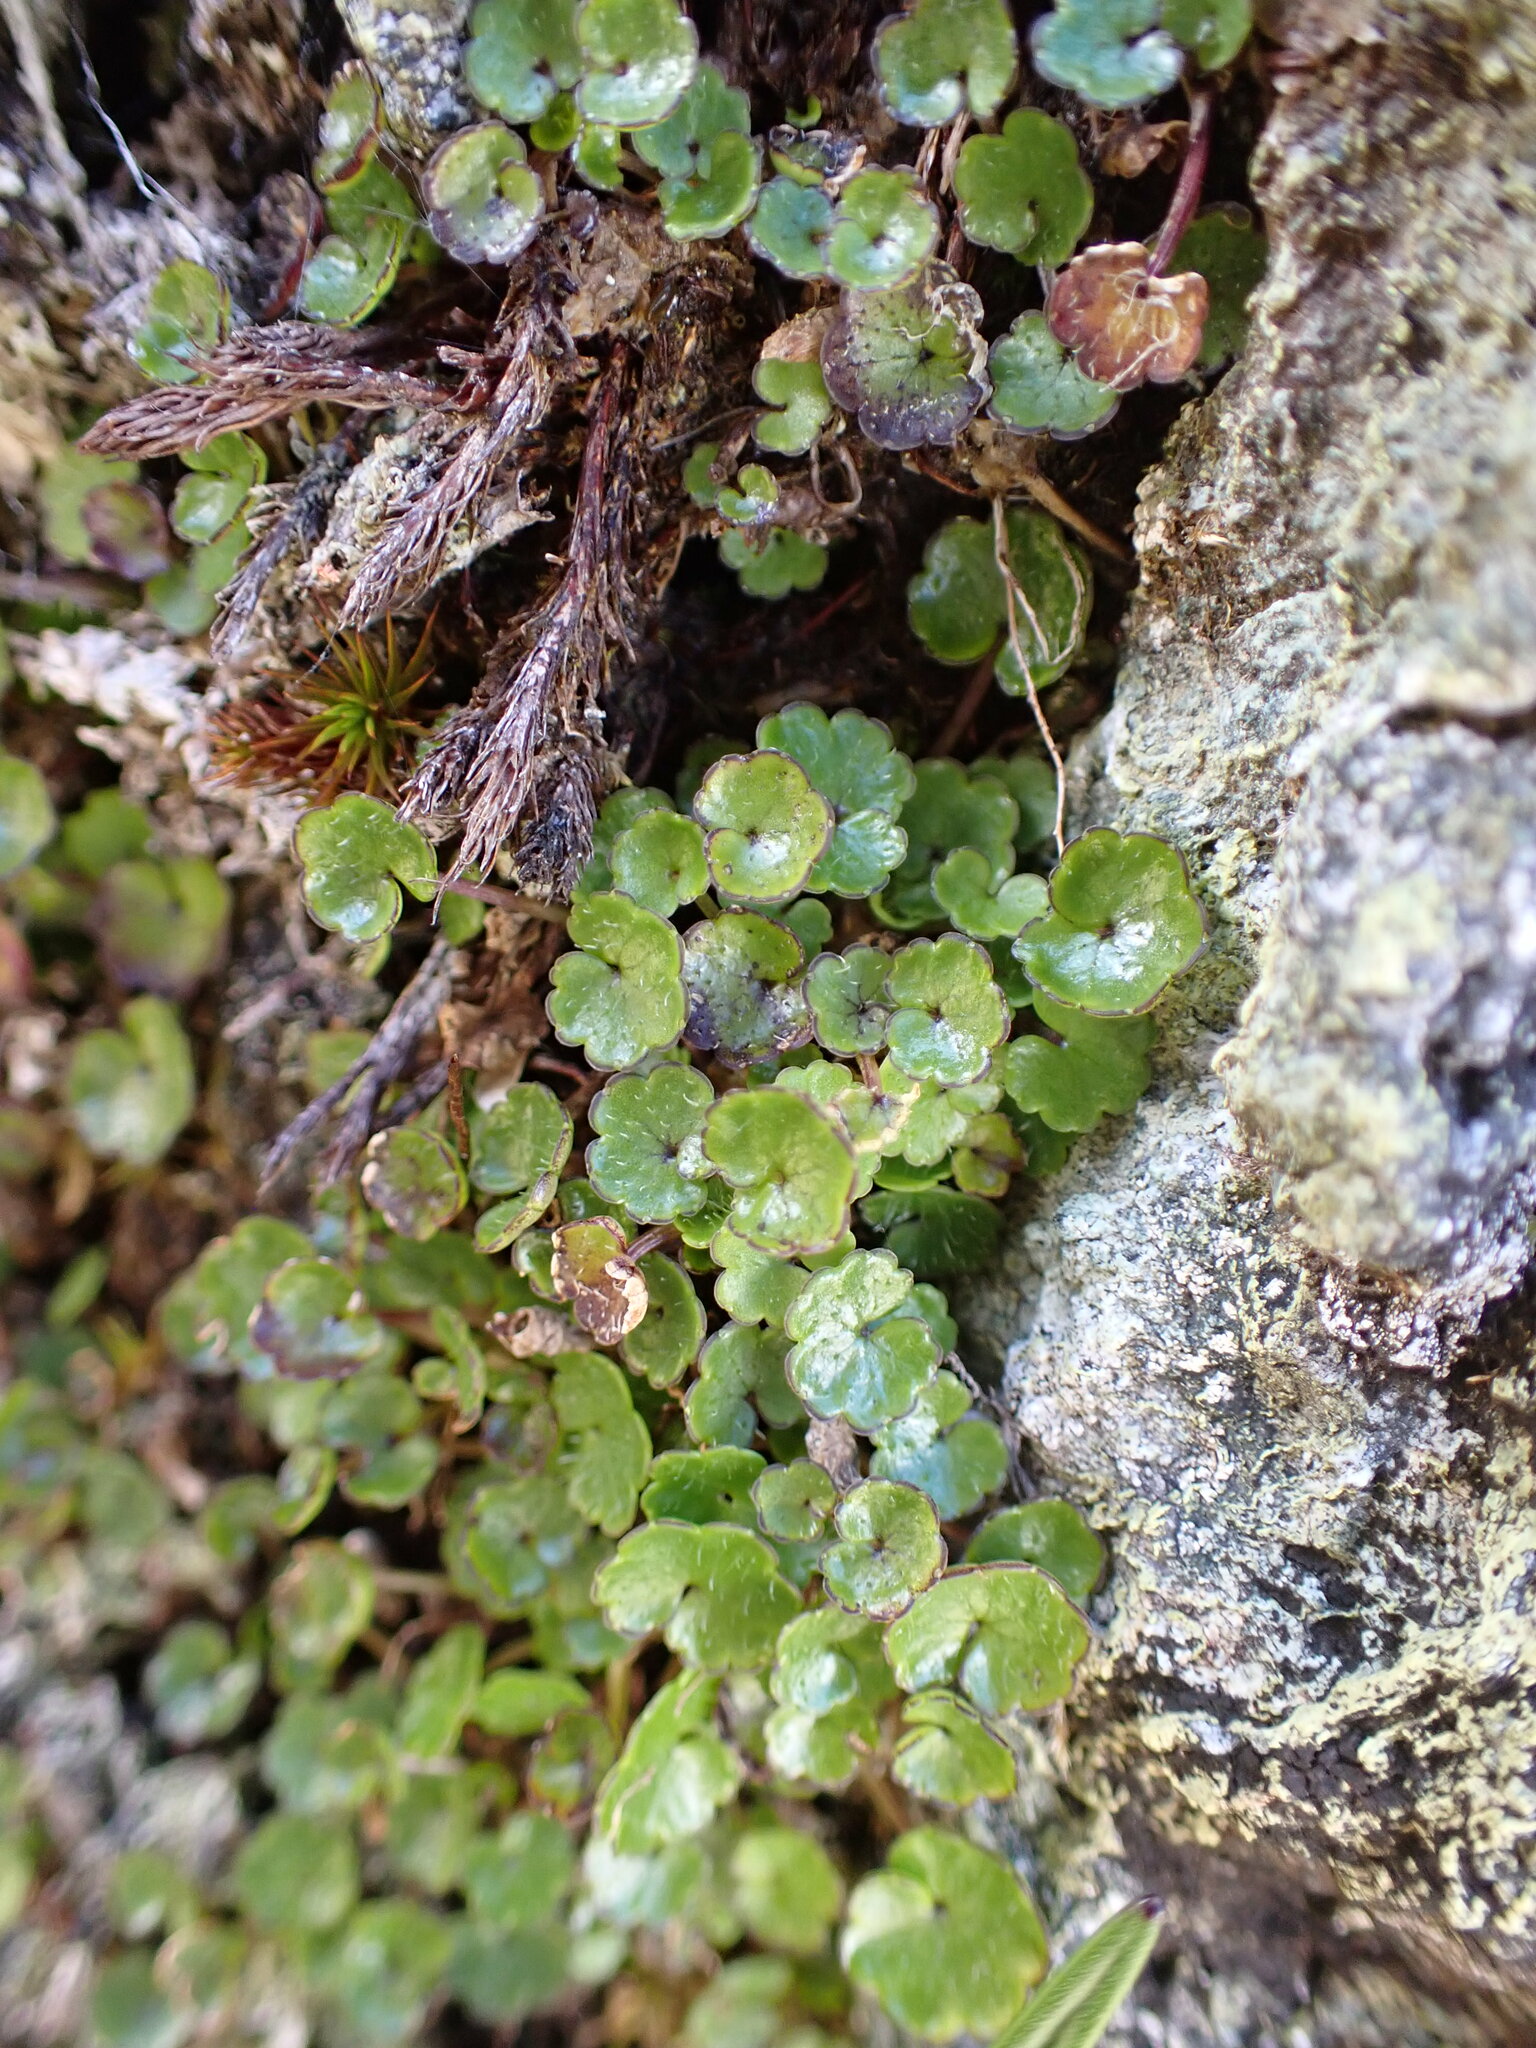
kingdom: Plantae
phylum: Tracheophyta
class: Magnoliopsida
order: Apiales
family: Apiaceae
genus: Azorella
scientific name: Azorella haastii
